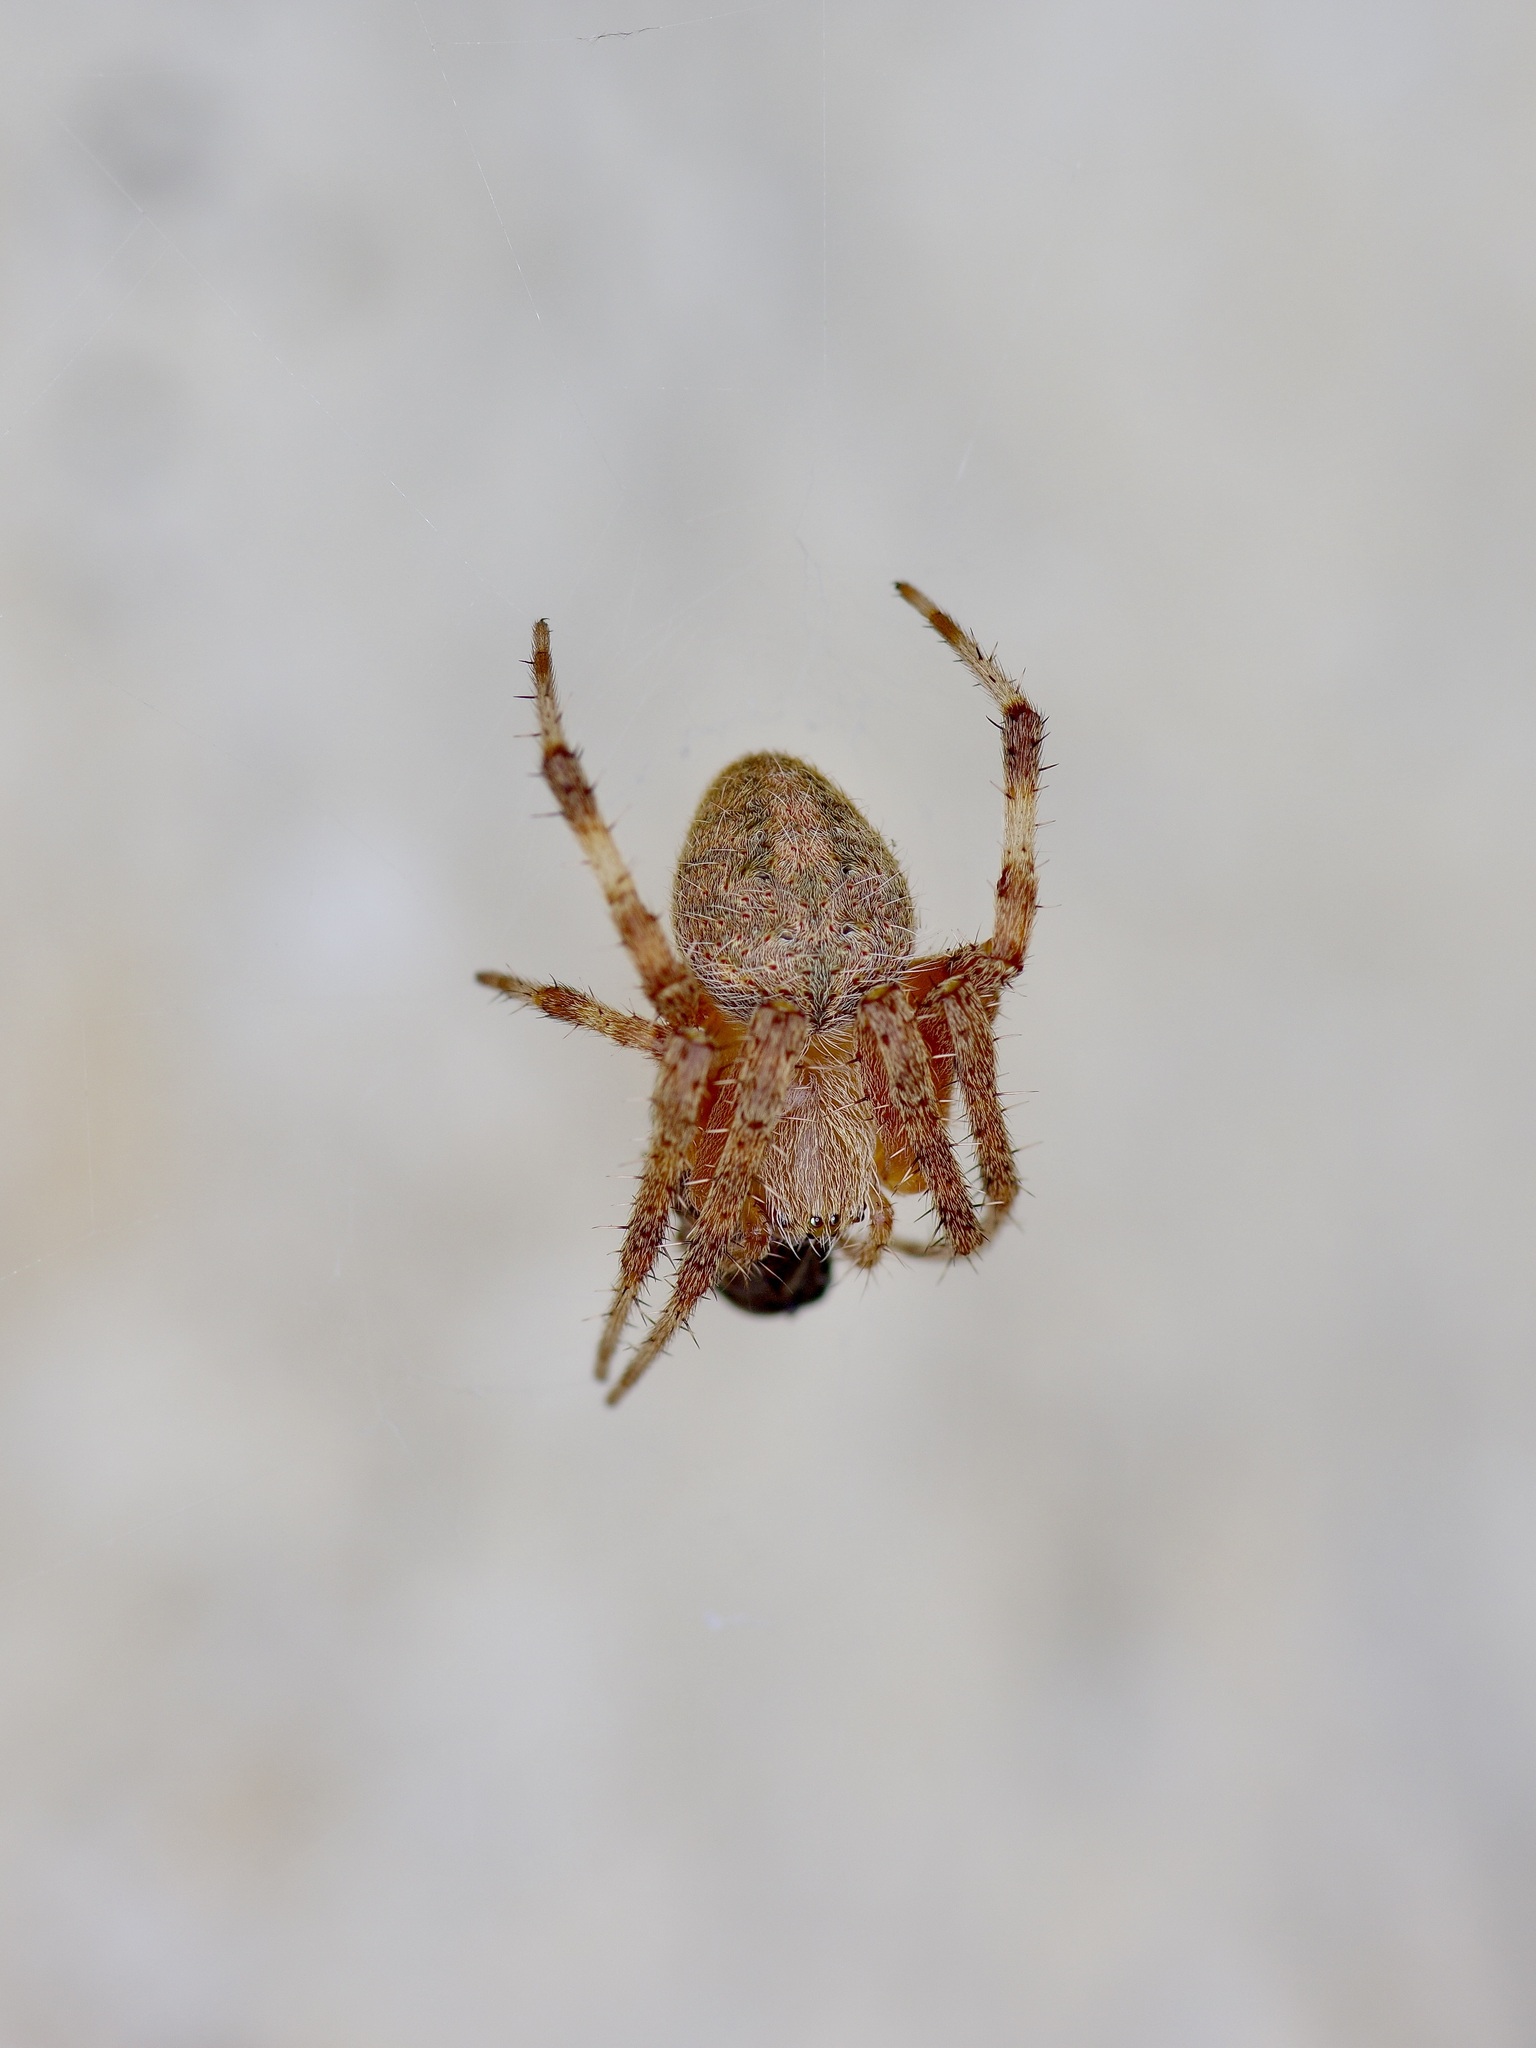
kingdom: Animalia
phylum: Arthropoda
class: Arachnida
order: Araneae
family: Araneidae
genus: Neoscona
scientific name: Neoscona crucifera
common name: Spotted orbweaver
